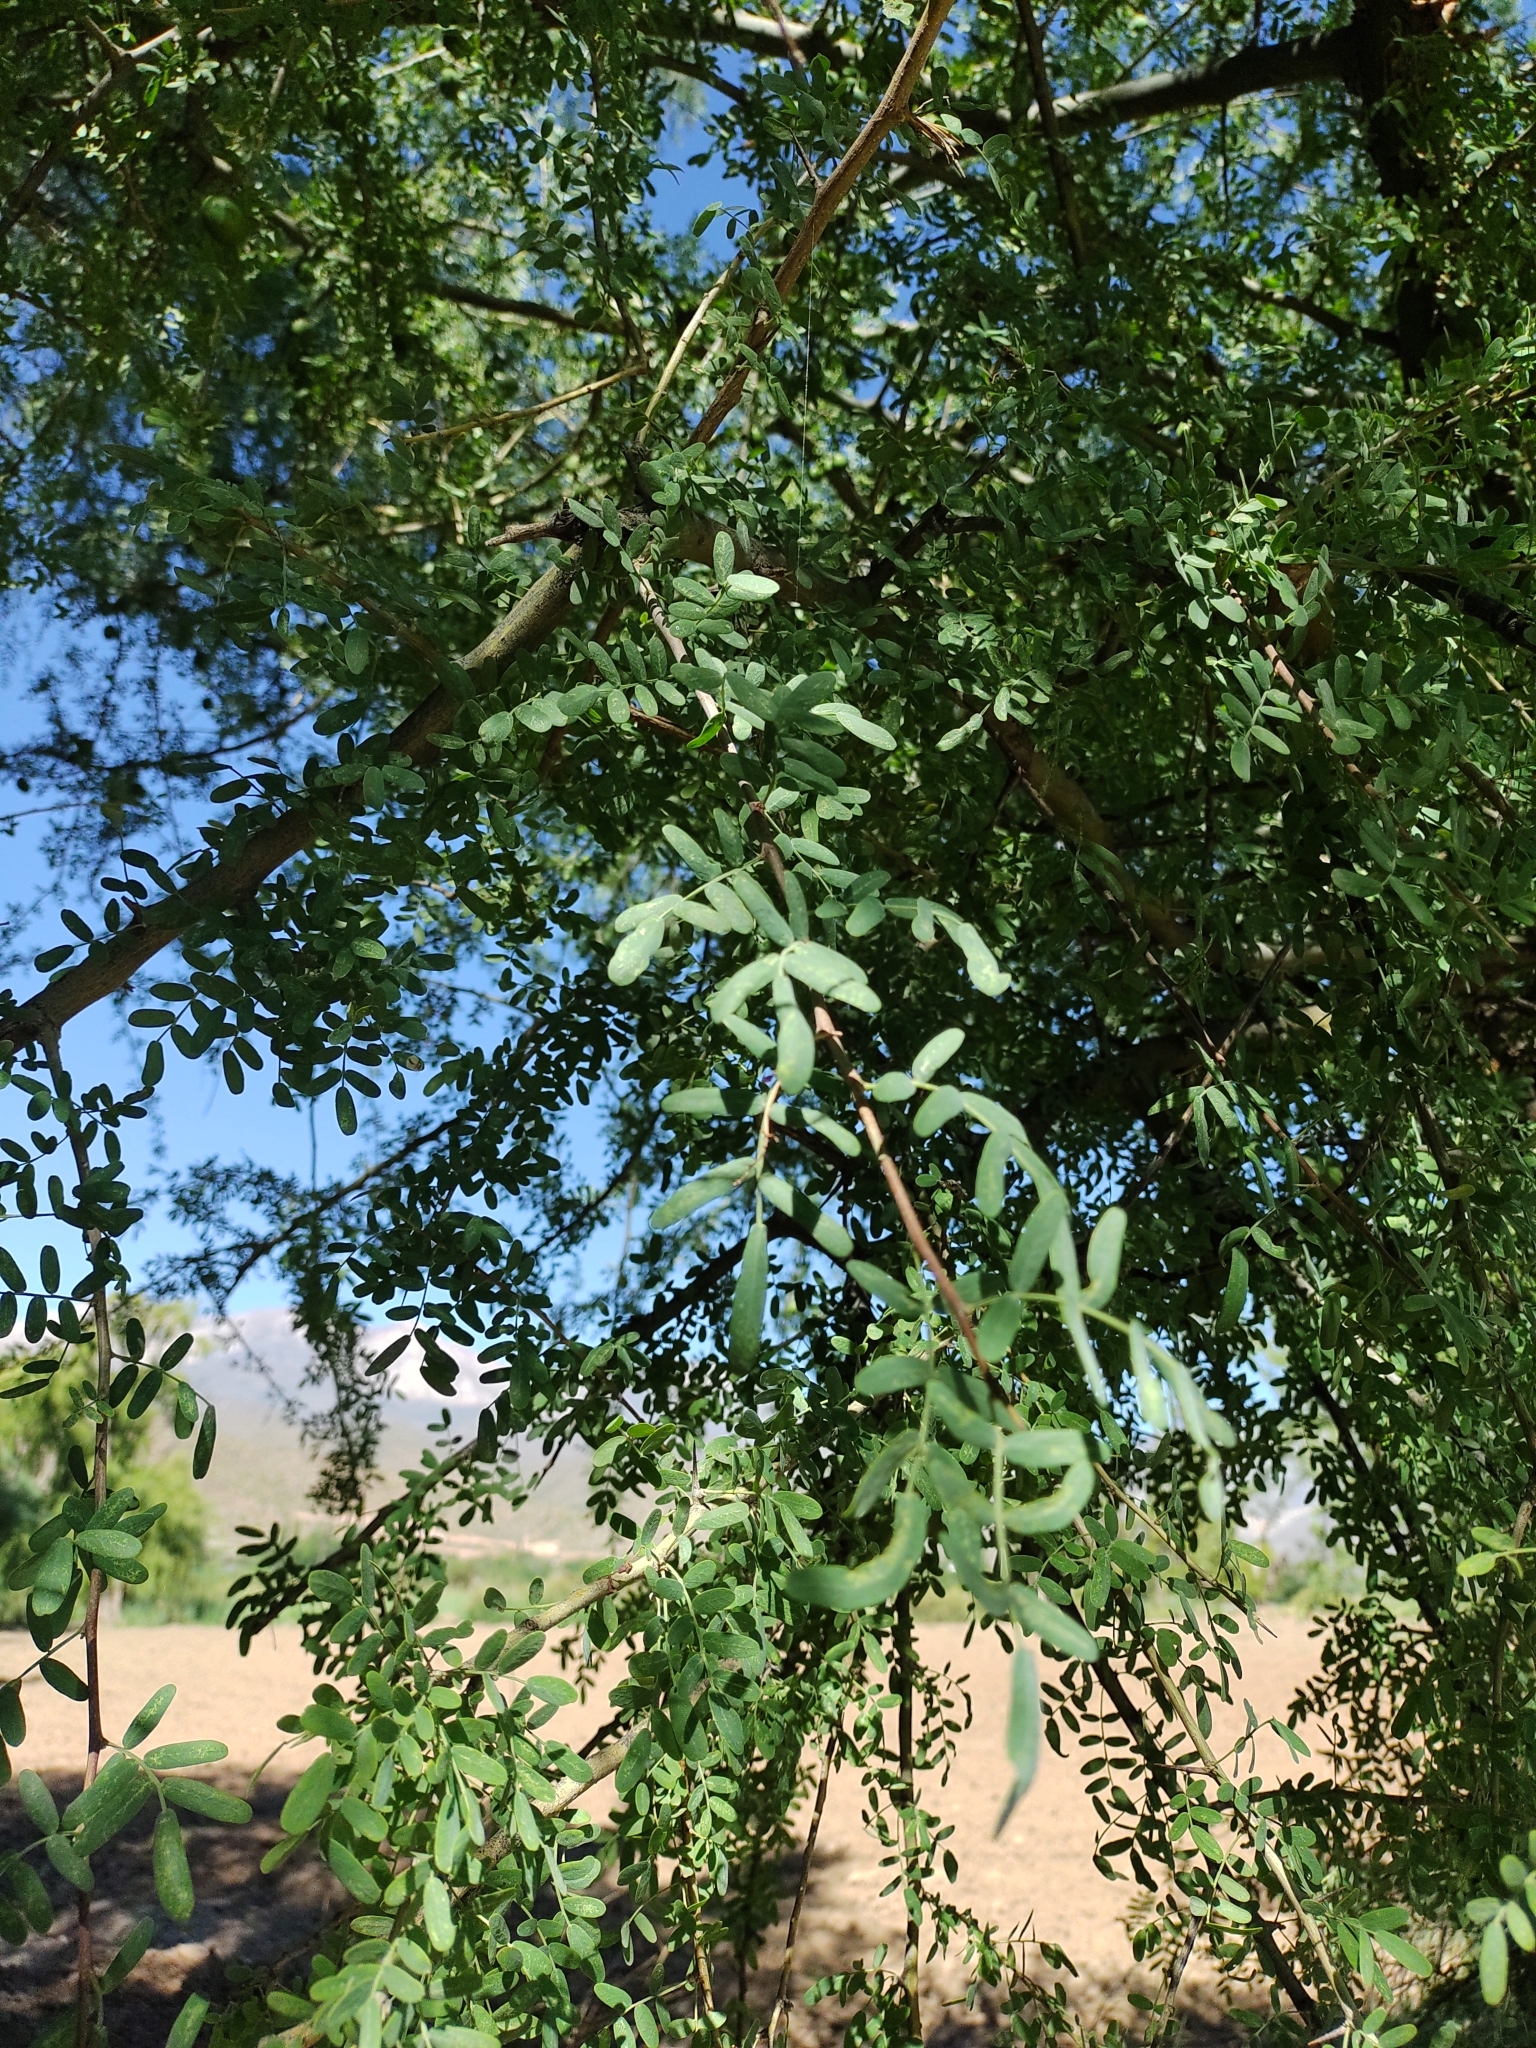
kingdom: Plantae
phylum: Tracheophyta
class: Magnoliopsida
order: Fabales
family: Fabaceae
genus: Geoffroea
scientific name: Geoffroea decorticans
